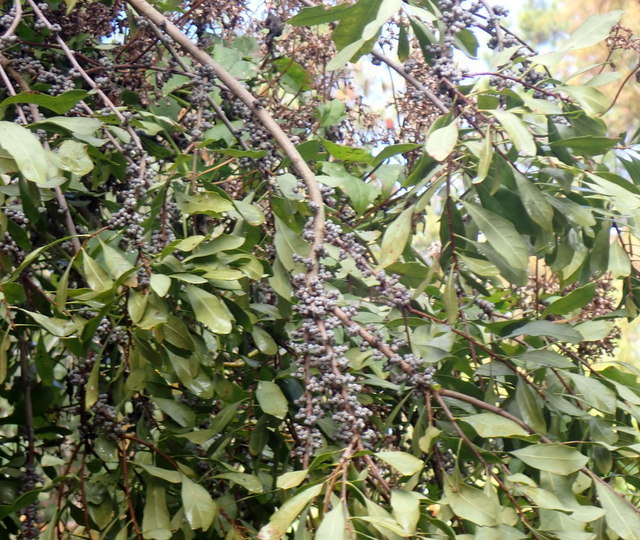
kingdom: Plantae
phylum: Tracheophyta
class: Magnoliopsida
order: Fagales
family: Myricaceae
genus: Morella
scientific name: Morella cerifera
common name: Wax myrtle
